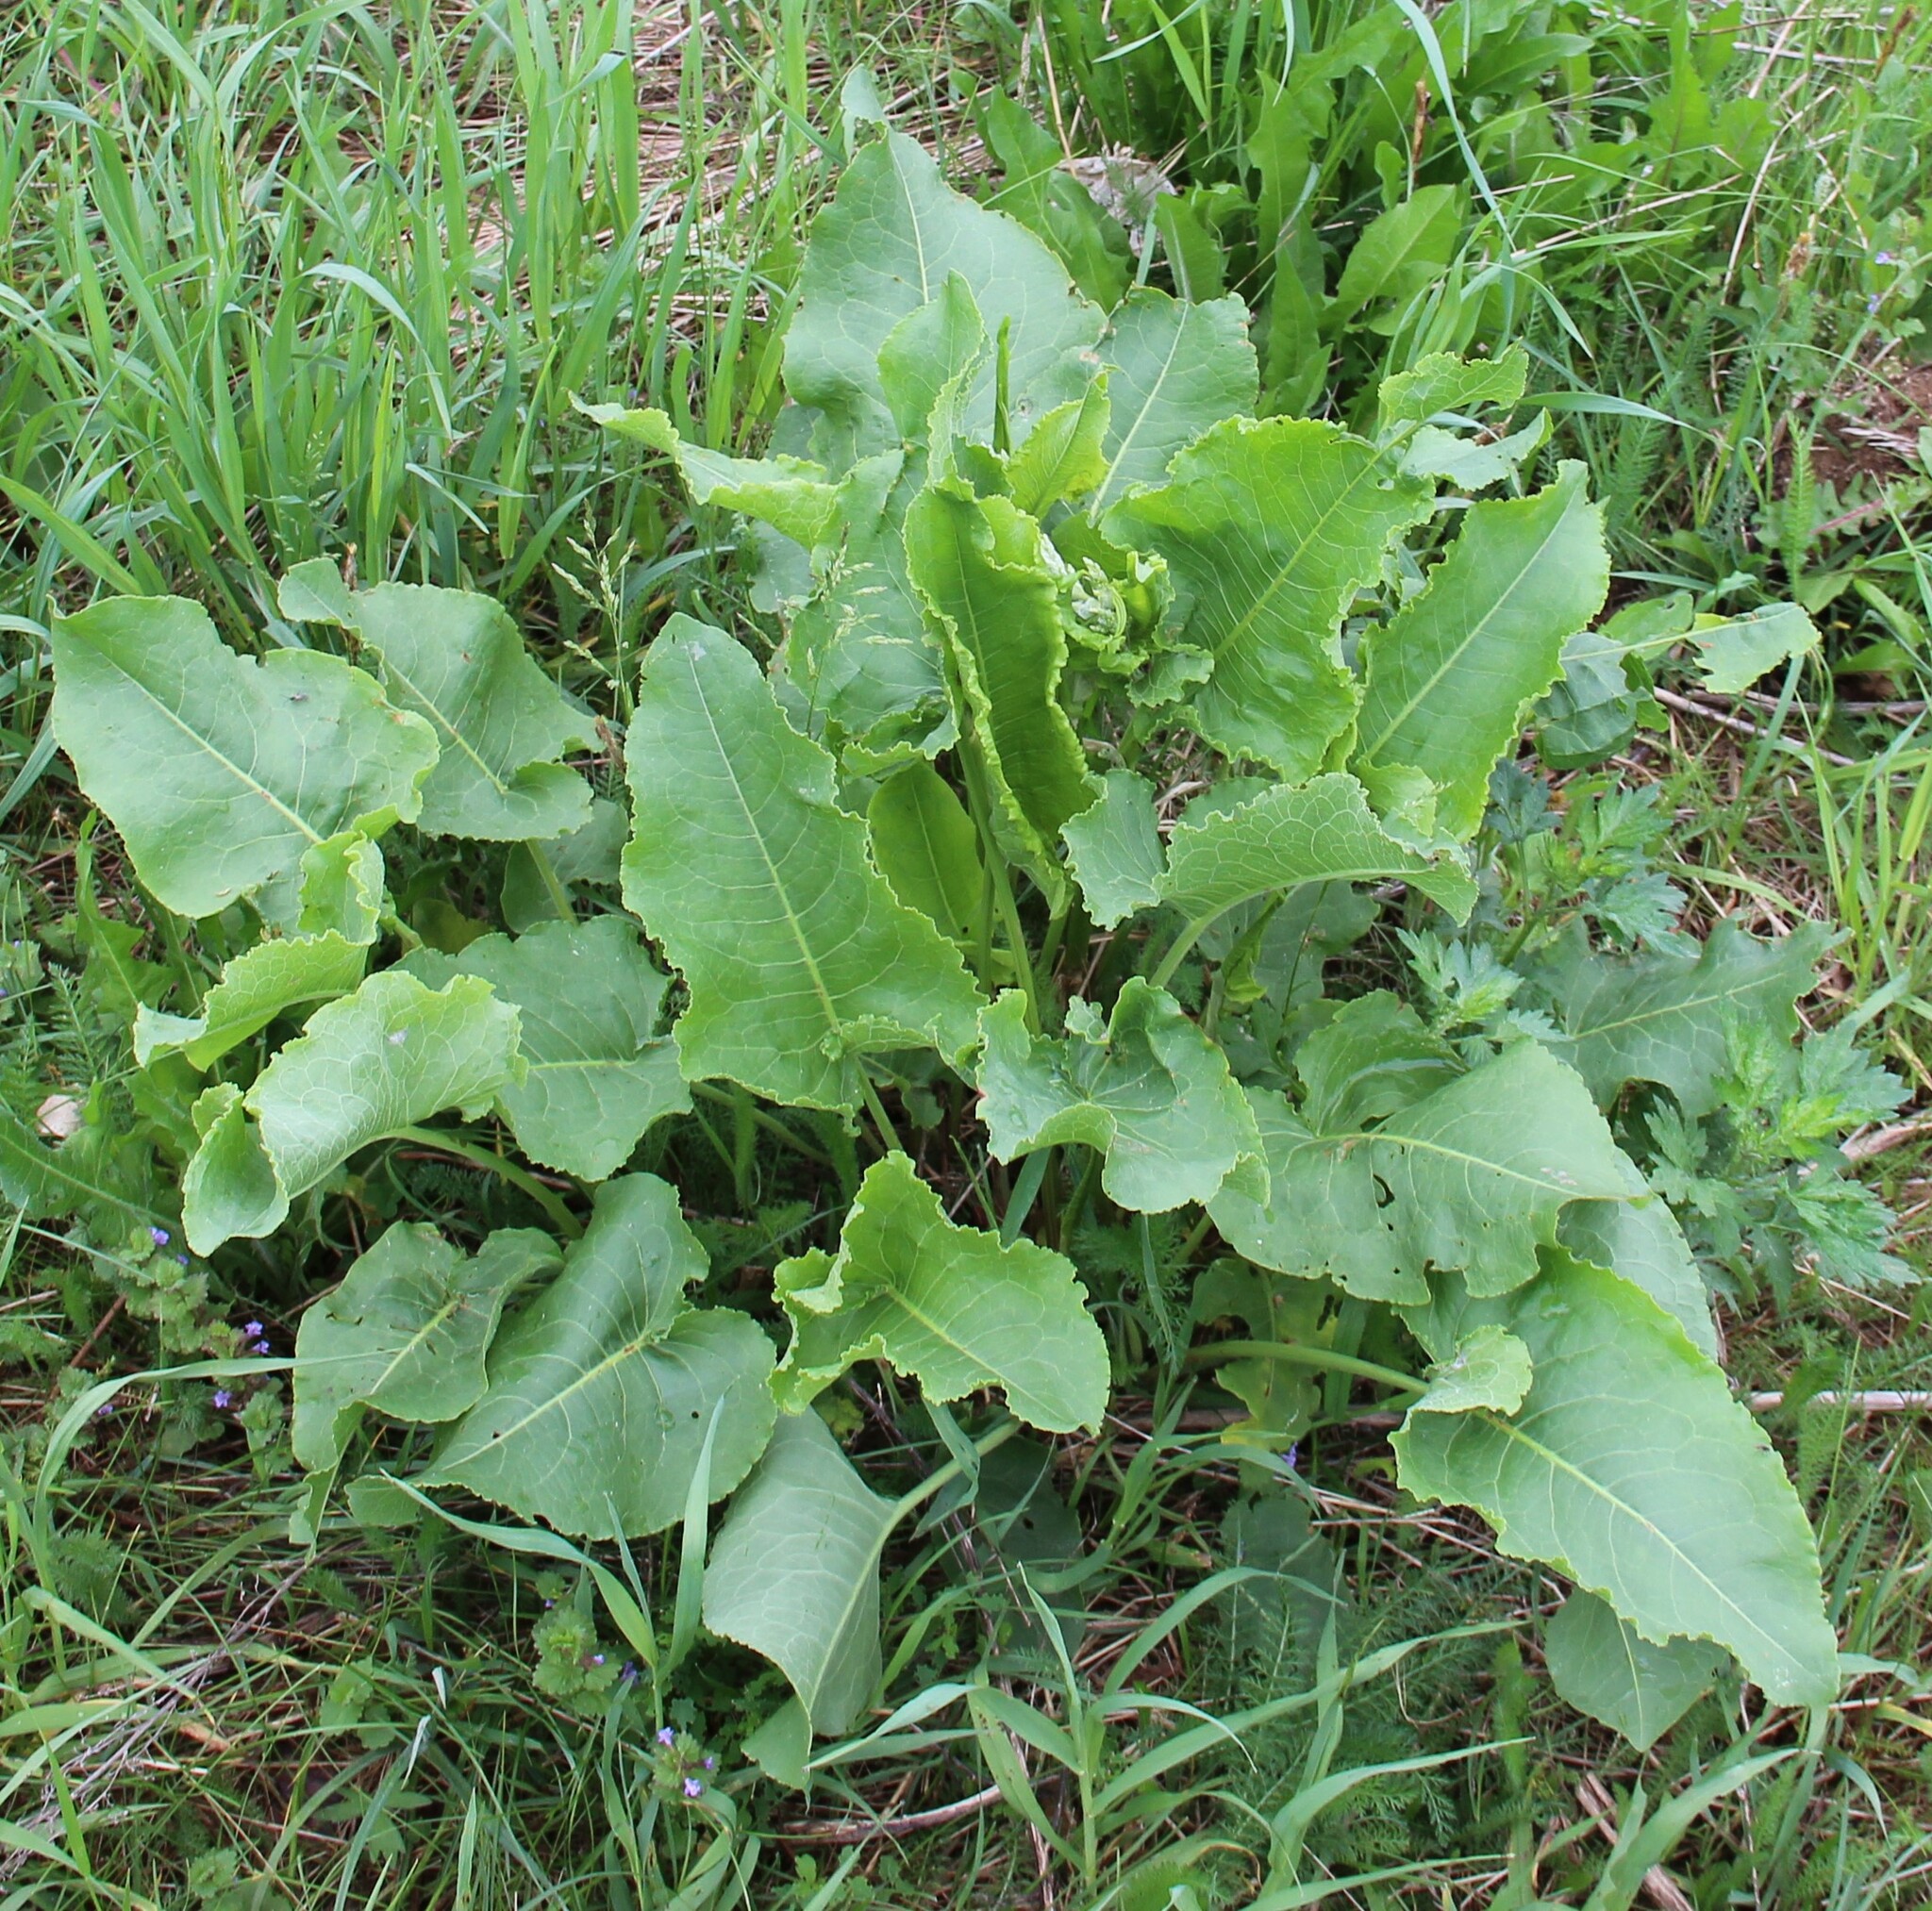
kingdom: Plantae
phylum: Tracheophyta
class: Magnoliopsida
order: Caryophyllales
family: Polygonaceae
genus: Rumex
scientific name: Rumex confertus
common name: Russian dock
